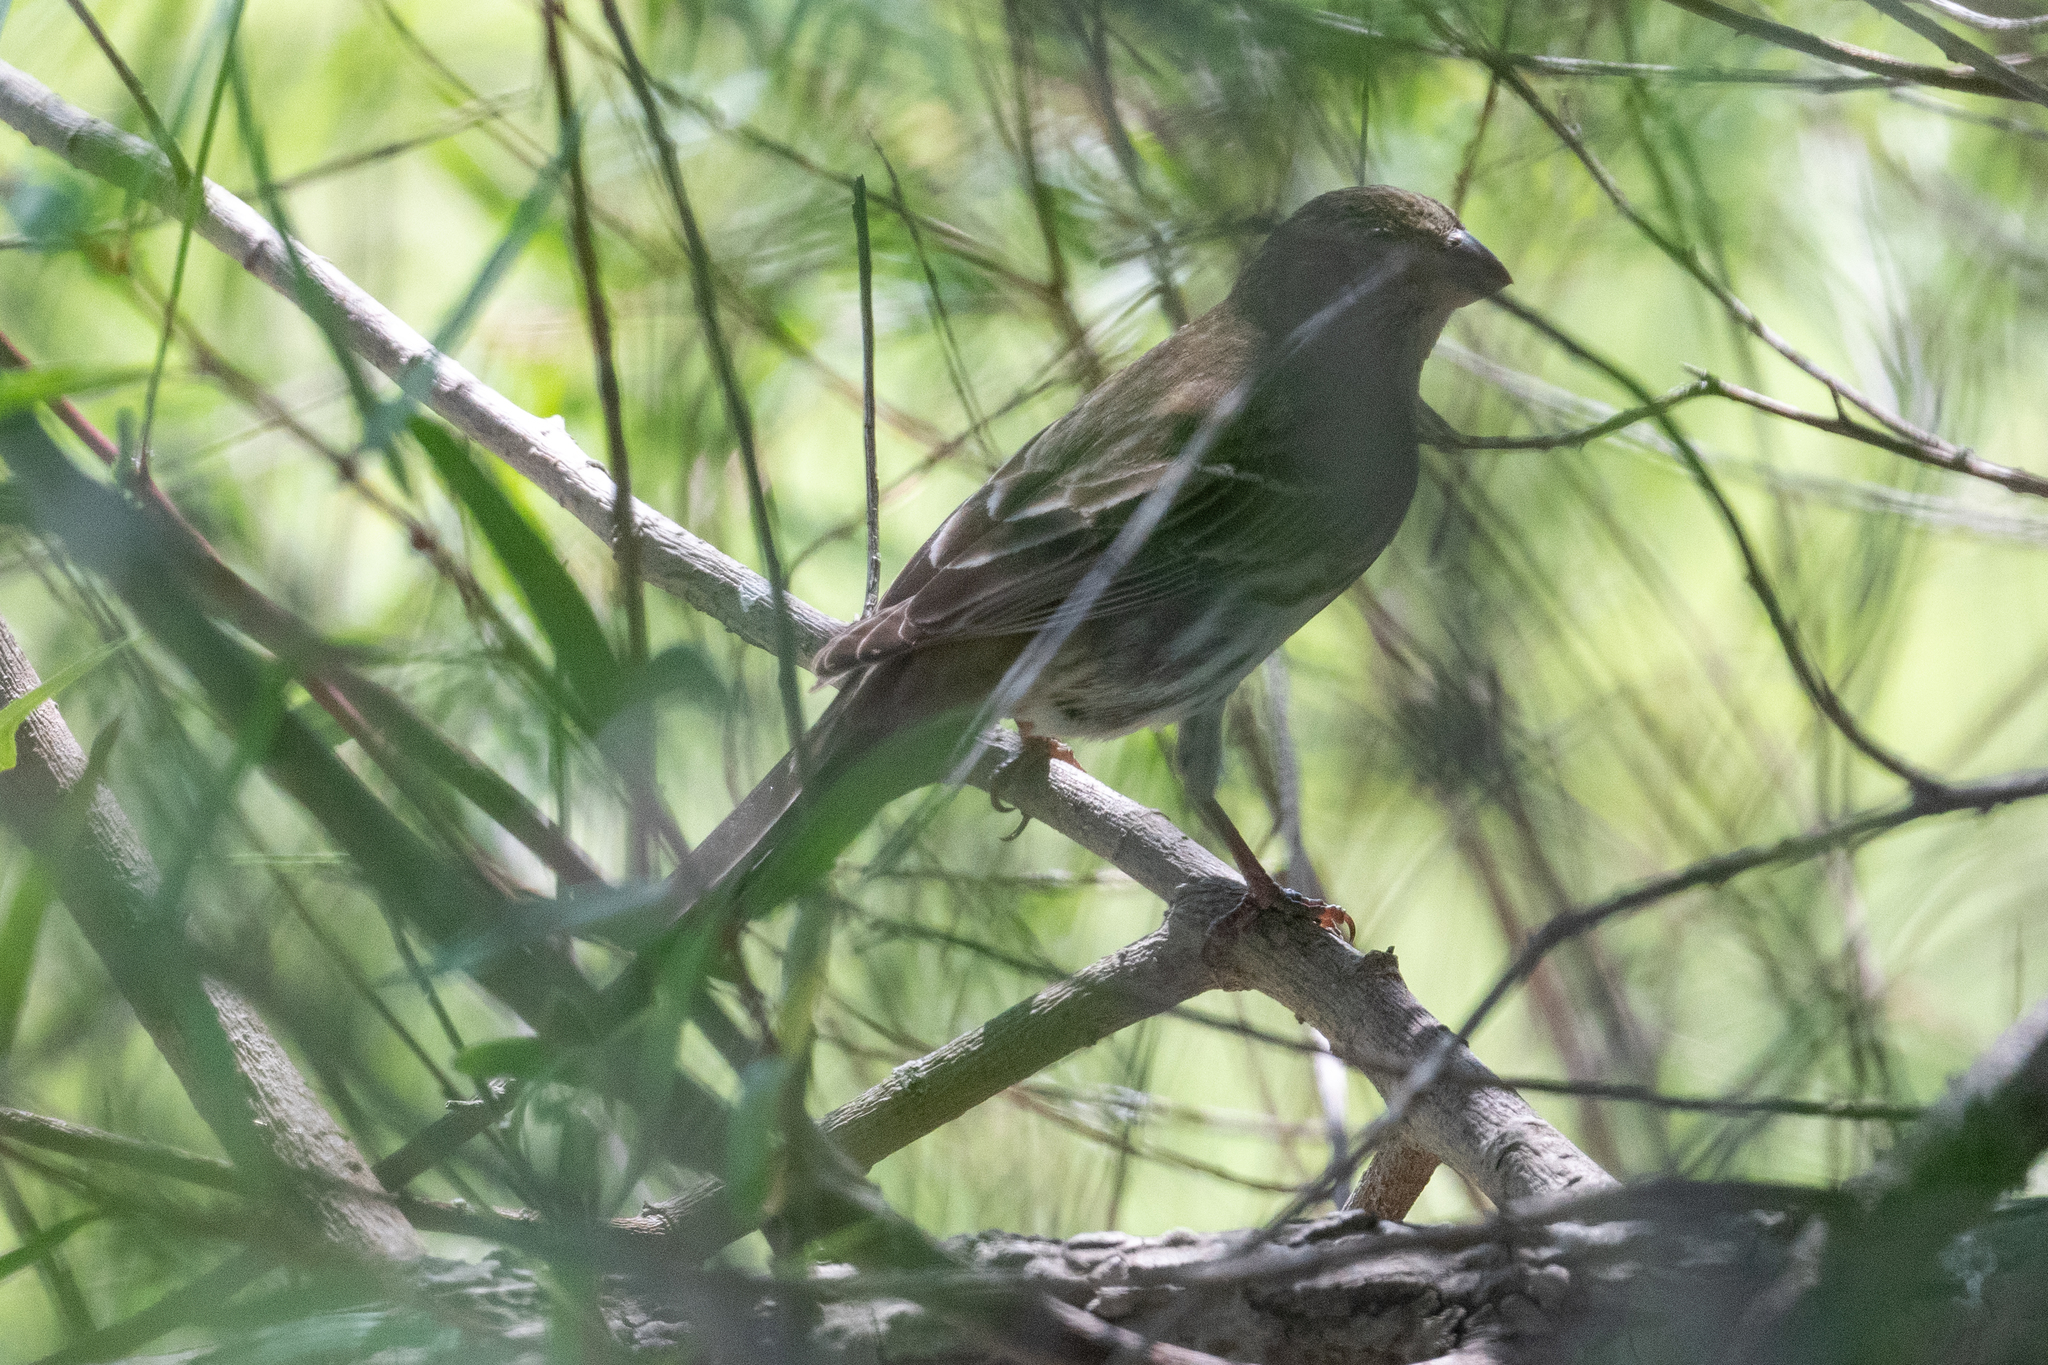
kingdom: Animalia
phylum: Chordata
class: Aves
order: Passeriformes
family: Fringillidae
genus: Haemorhous
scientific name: Haemorhous mexicanus
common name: House finch
